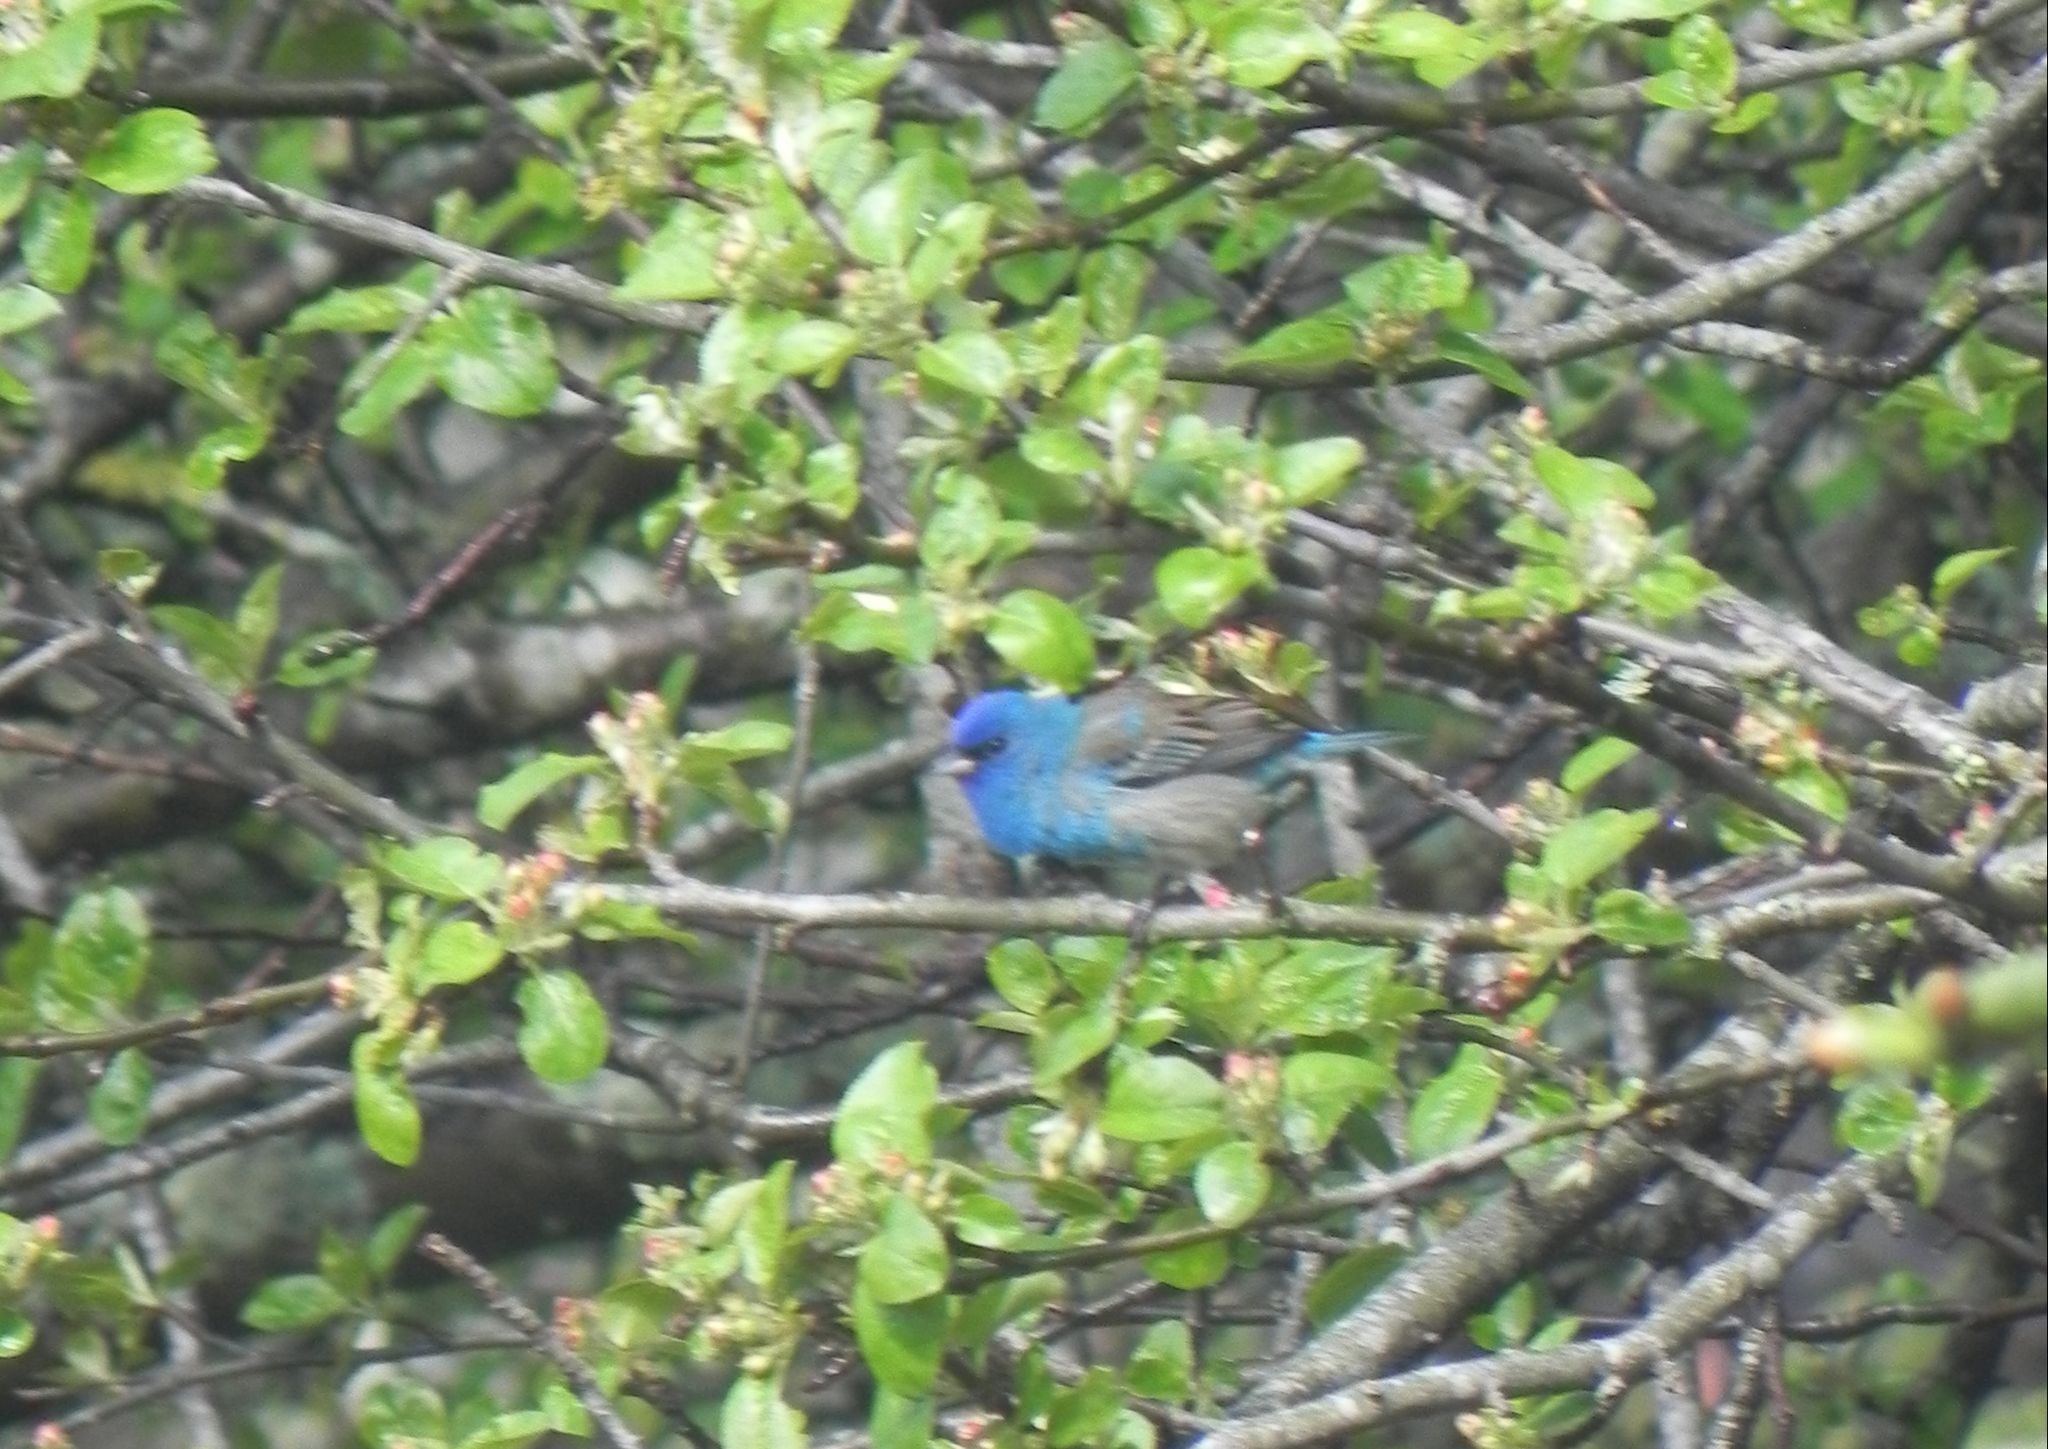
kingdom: Animalia
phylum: Chordata
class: Aves
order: Passeriformes
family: Cardinalidae
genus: Passerina
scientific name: Passerina cyanea
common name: Indigo bunting
